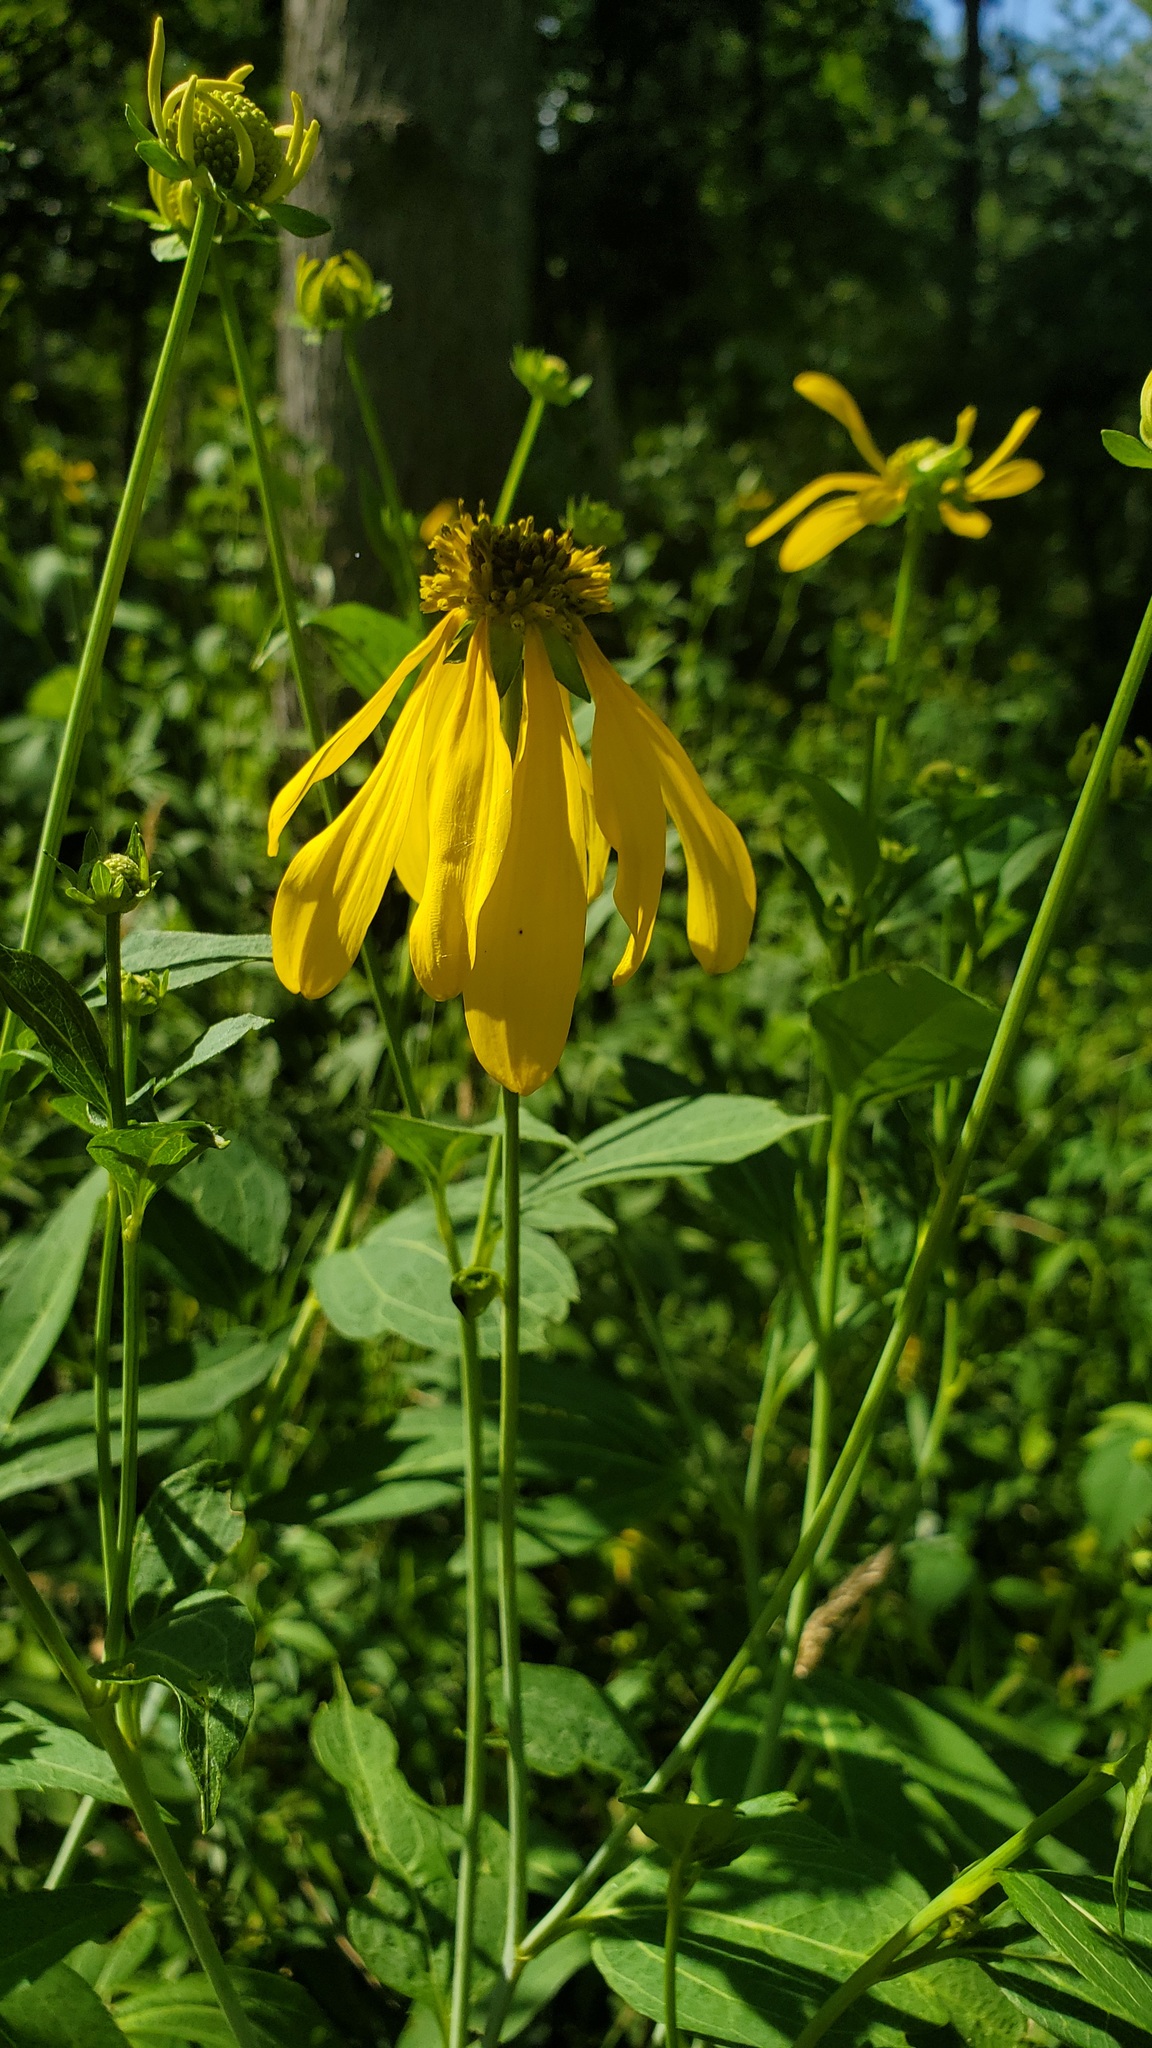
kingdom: Plantae
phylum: Tracheophyta
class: Magnoliopsida
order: Asterales
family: Asteraceae
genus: Rudbeckia
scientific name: Rudbeckia laciniata
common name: Coneflower
